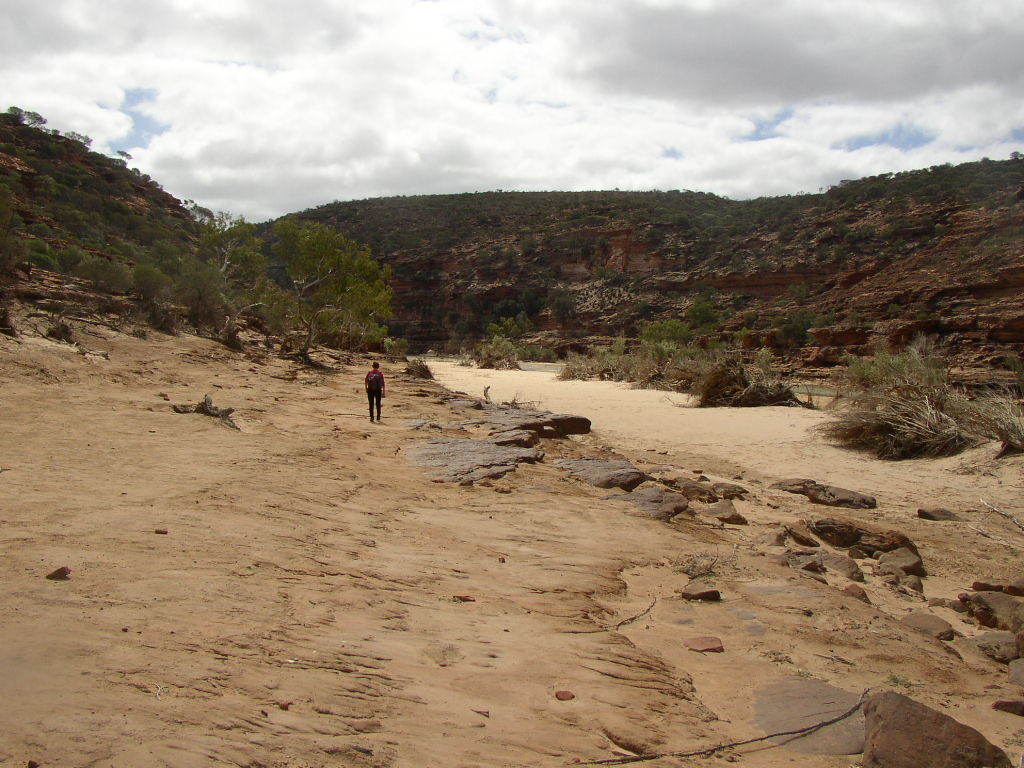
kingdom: Plantae
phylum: Tracheophyta
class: Magnoliopsida
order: Myrtales
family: Myrtaceae
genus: Eucalyptus
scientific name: Eucalyptus camaldulensis
